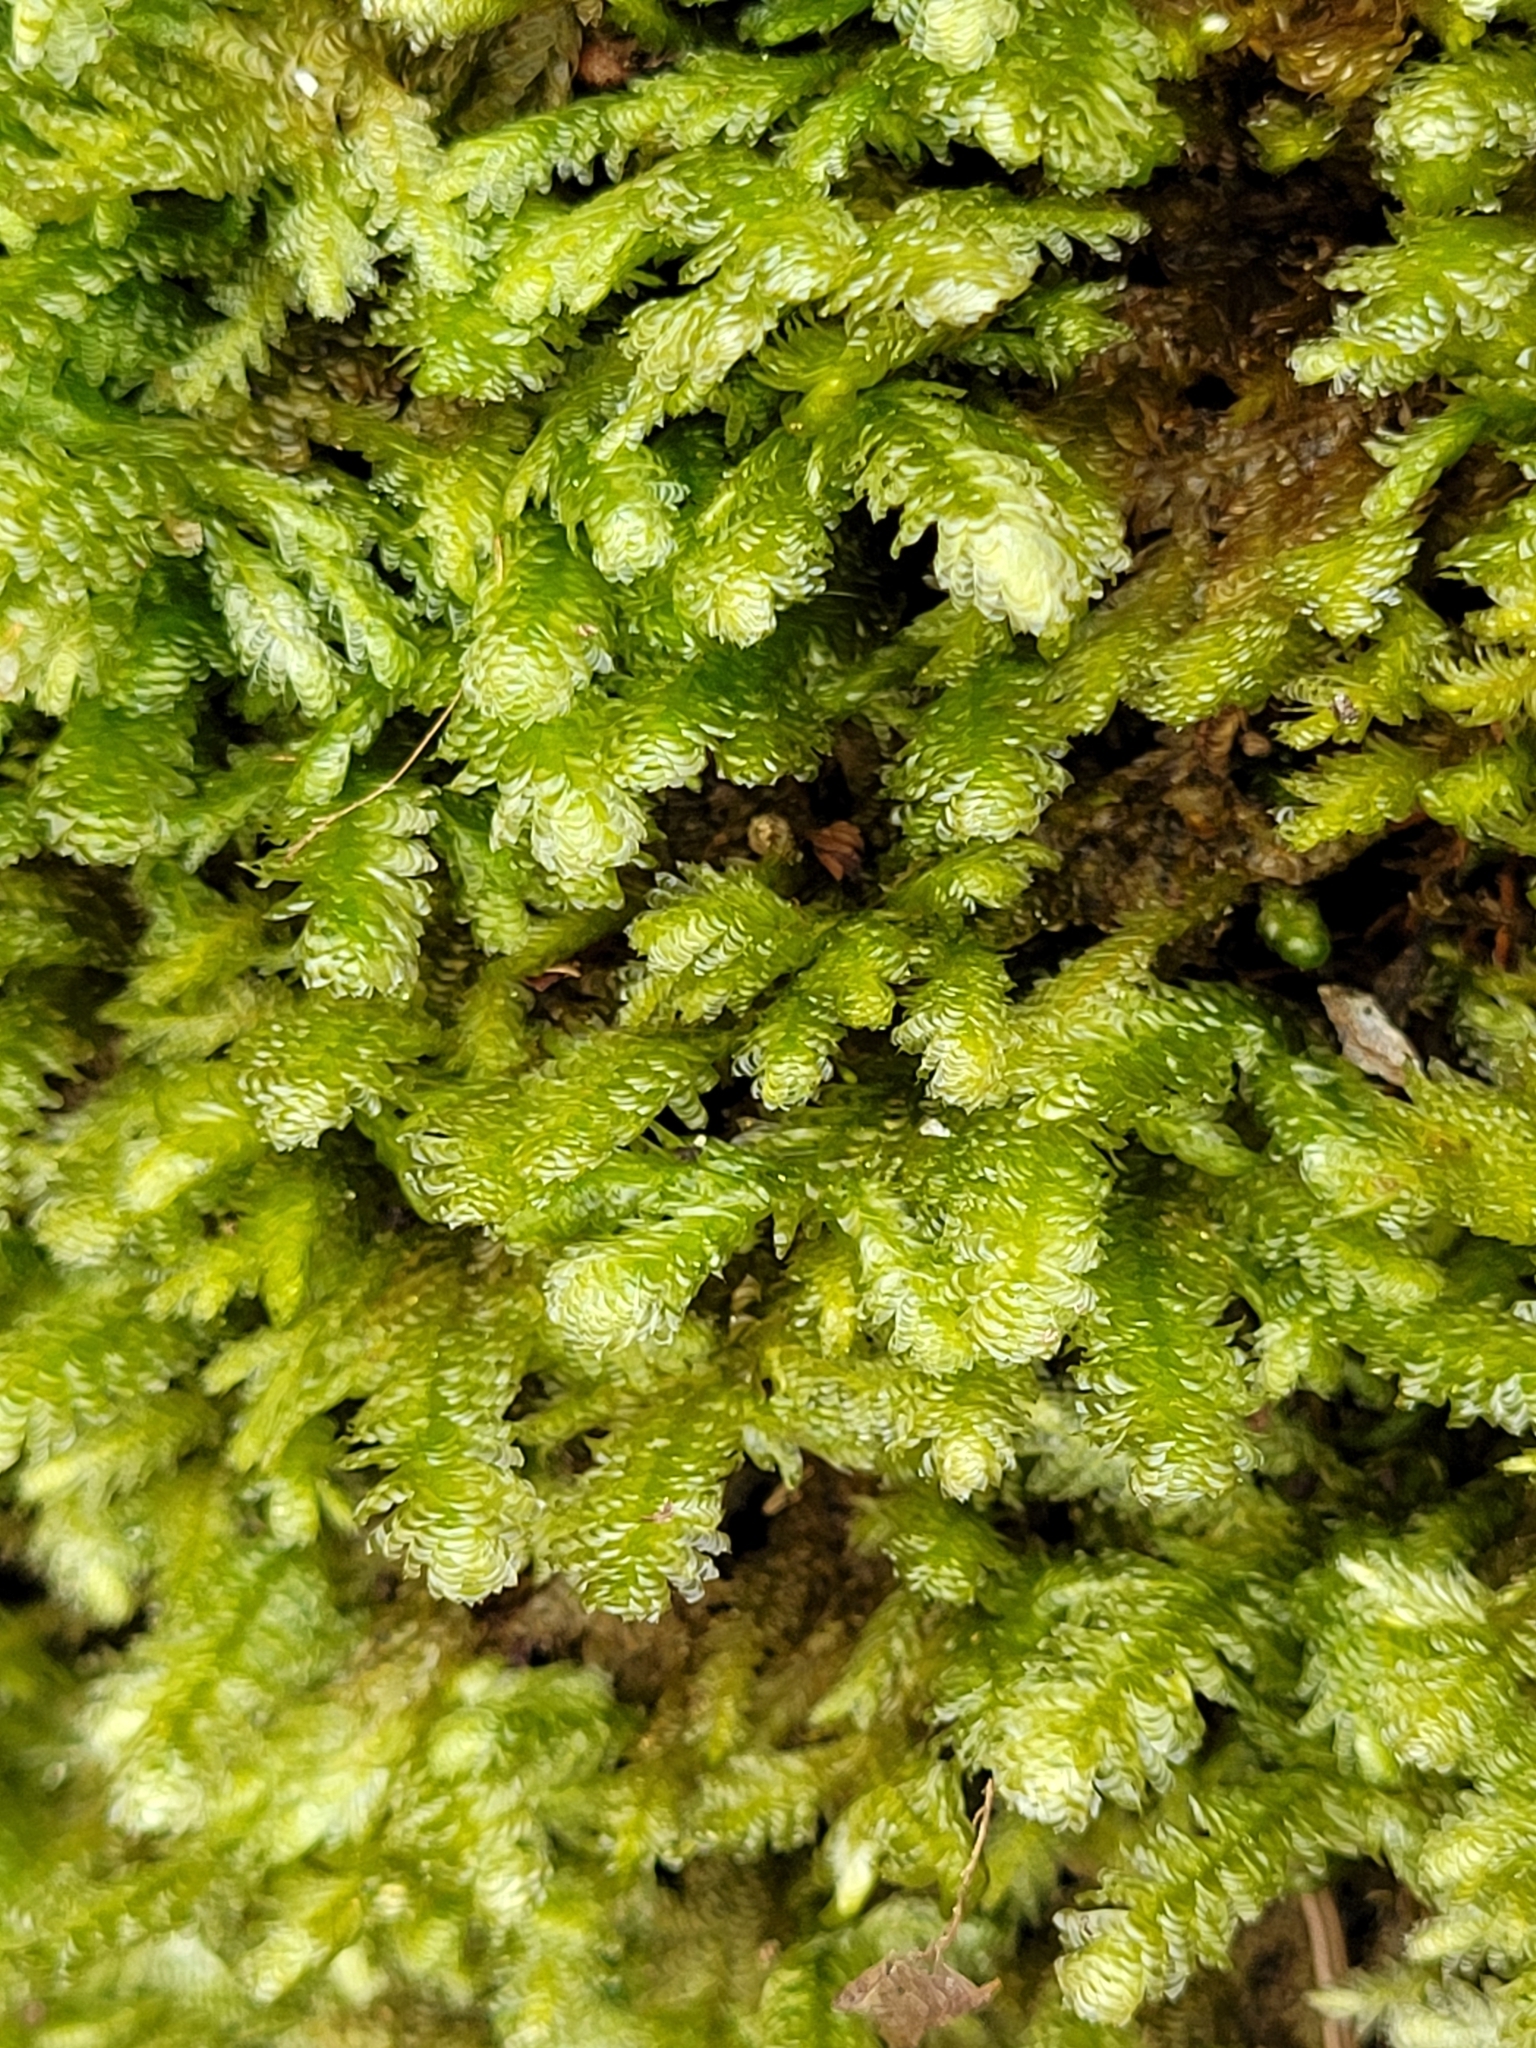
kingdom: Plantae
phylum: Bryophyta
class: Bryopsida
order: Hypnales
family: Neckeraceae
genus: Exsertotheca
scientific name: Exsertotheca crispa
